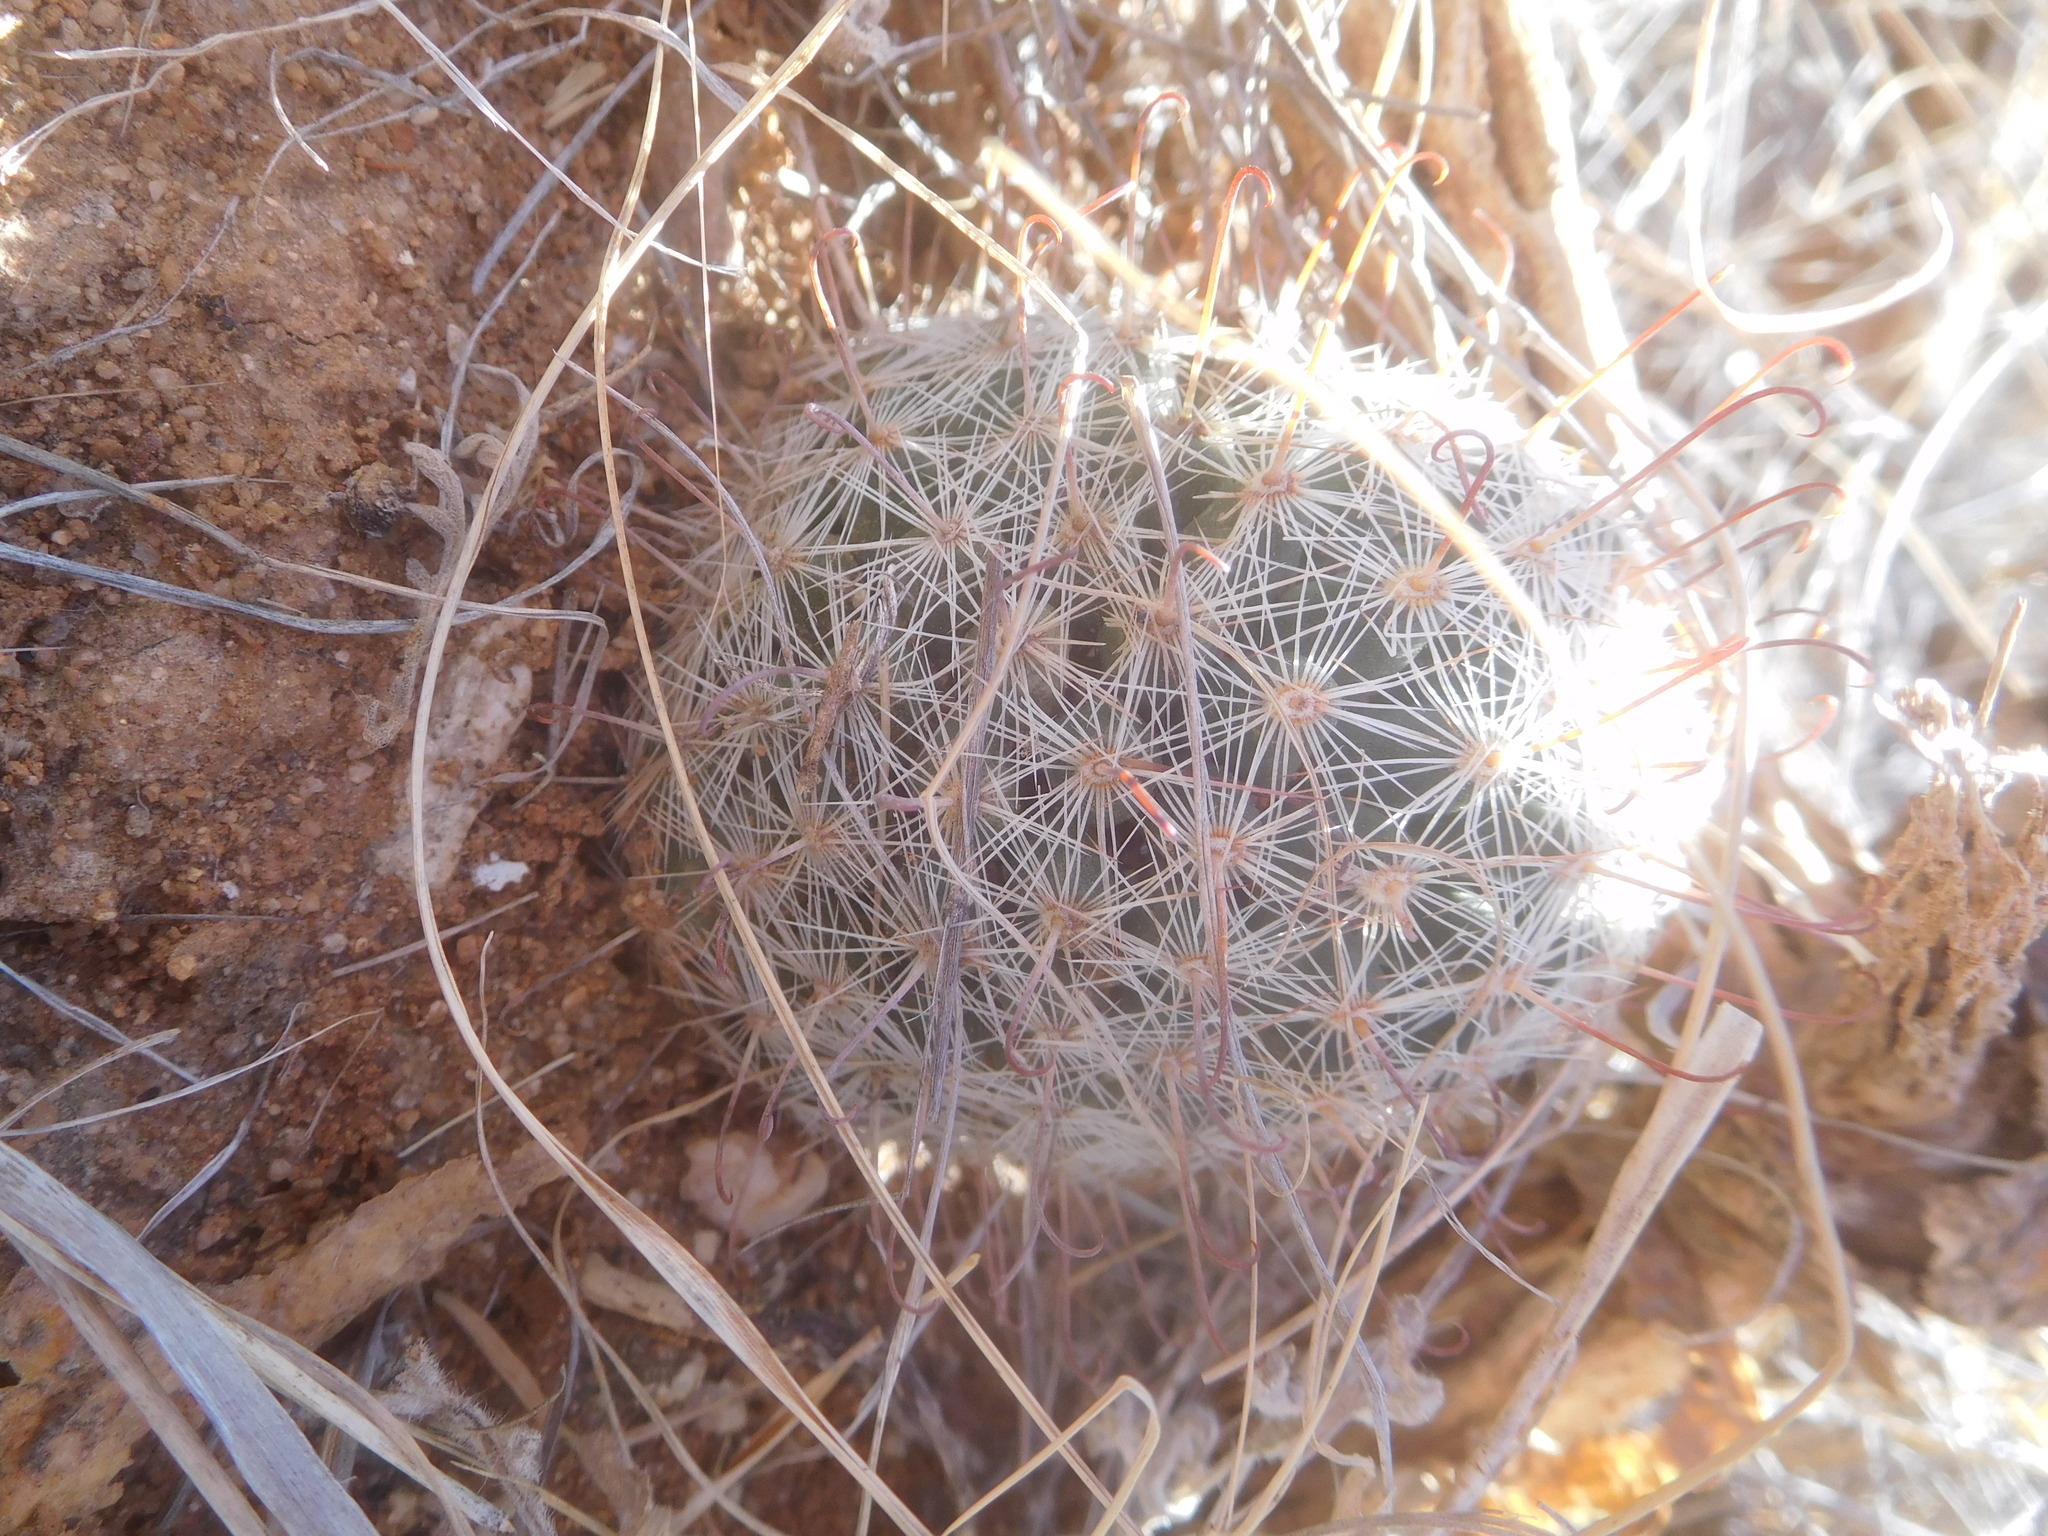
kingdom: Plantae
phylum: Tracheophyta
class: Magnoliopsida
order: Caryophyllales
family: Cactaceae
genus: Cochemiea
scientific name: Cochemiea grahamii
